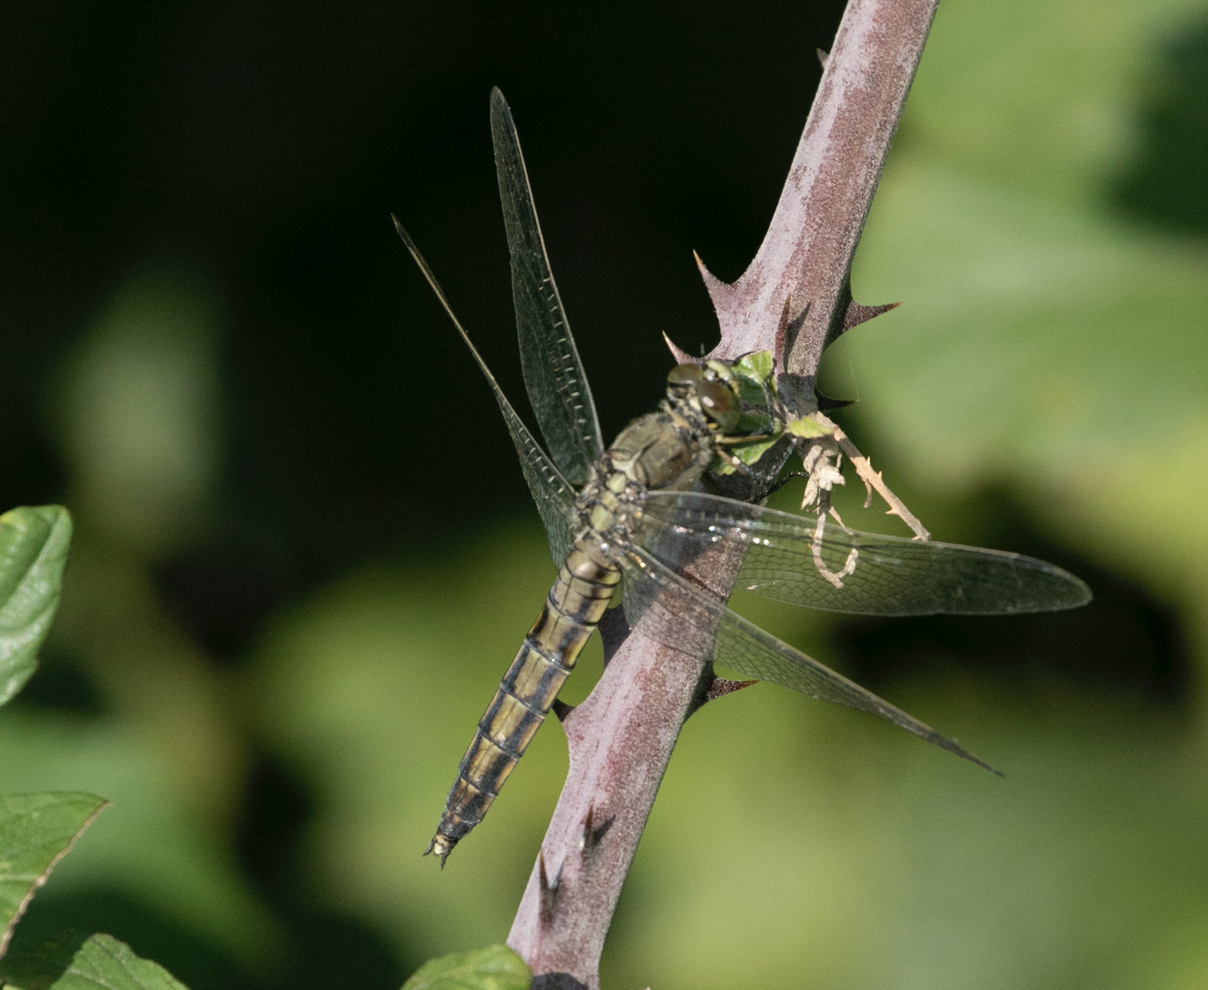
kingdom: Animalia
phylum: Arthropoda
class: Insecta
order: Odonata
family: Libellulidae
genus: Orthetrum
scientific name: Orthetrum cancellatum
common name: Black-tailed skimmer
